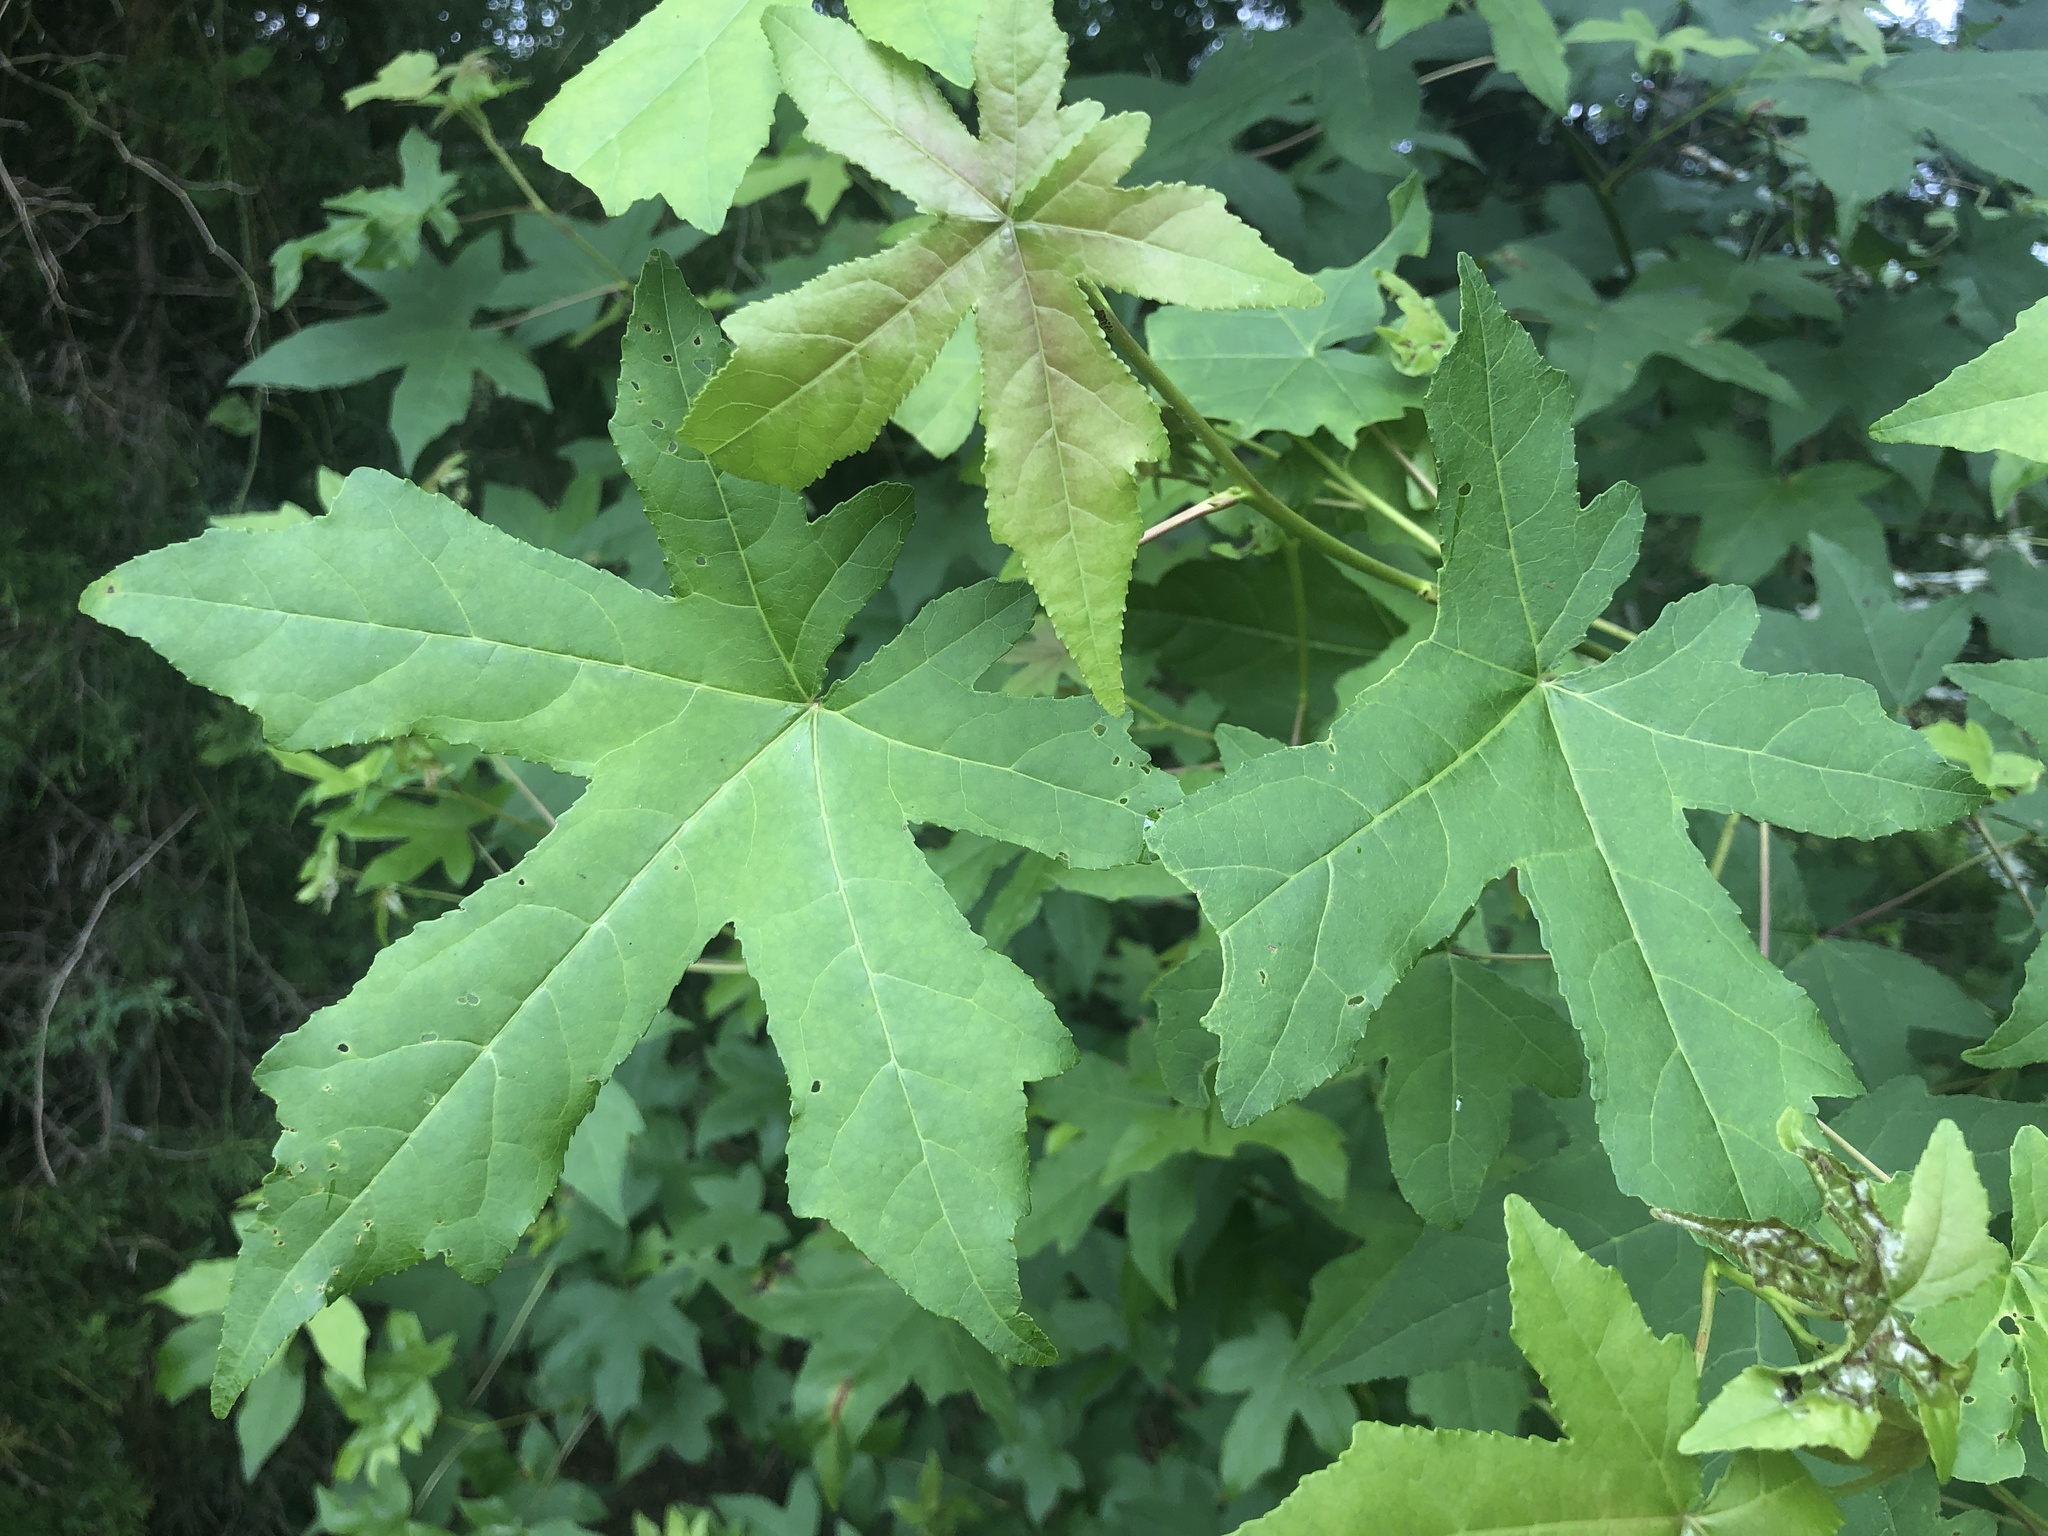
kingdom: Plantae
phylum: Tracheophyta
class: Magnoliopsida
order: Saxifragales
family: Altingiaceae
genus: Liquidambar
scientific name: Liquidambar styraciflua
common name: Sweet gum
